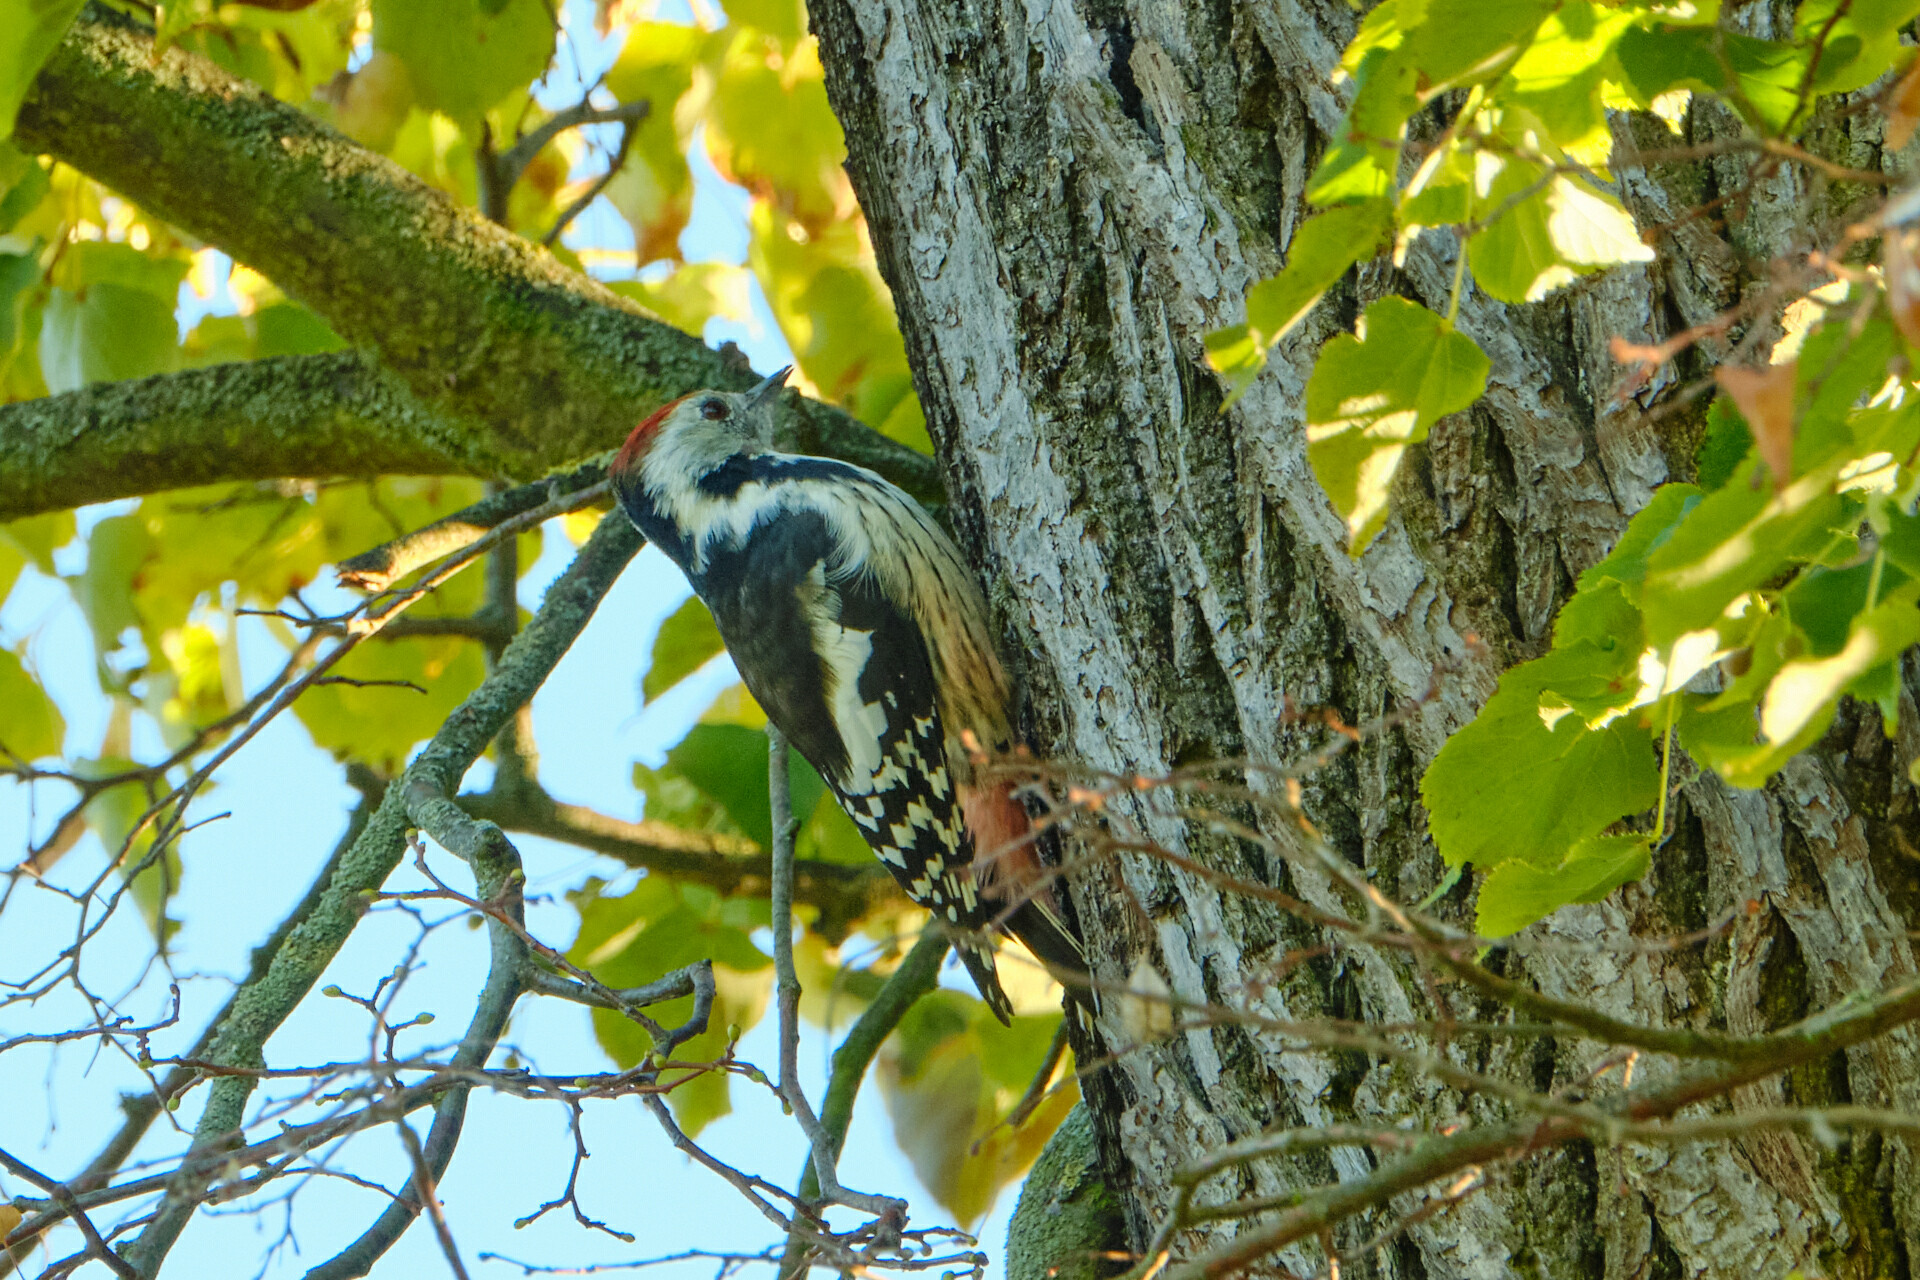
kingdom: Animalia
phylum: Chordata
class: Aves
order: Piciformes
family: Picidae
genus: Dendrocoptes
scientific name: Dendrocoptes medius
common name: Middle spotted woodpecker
